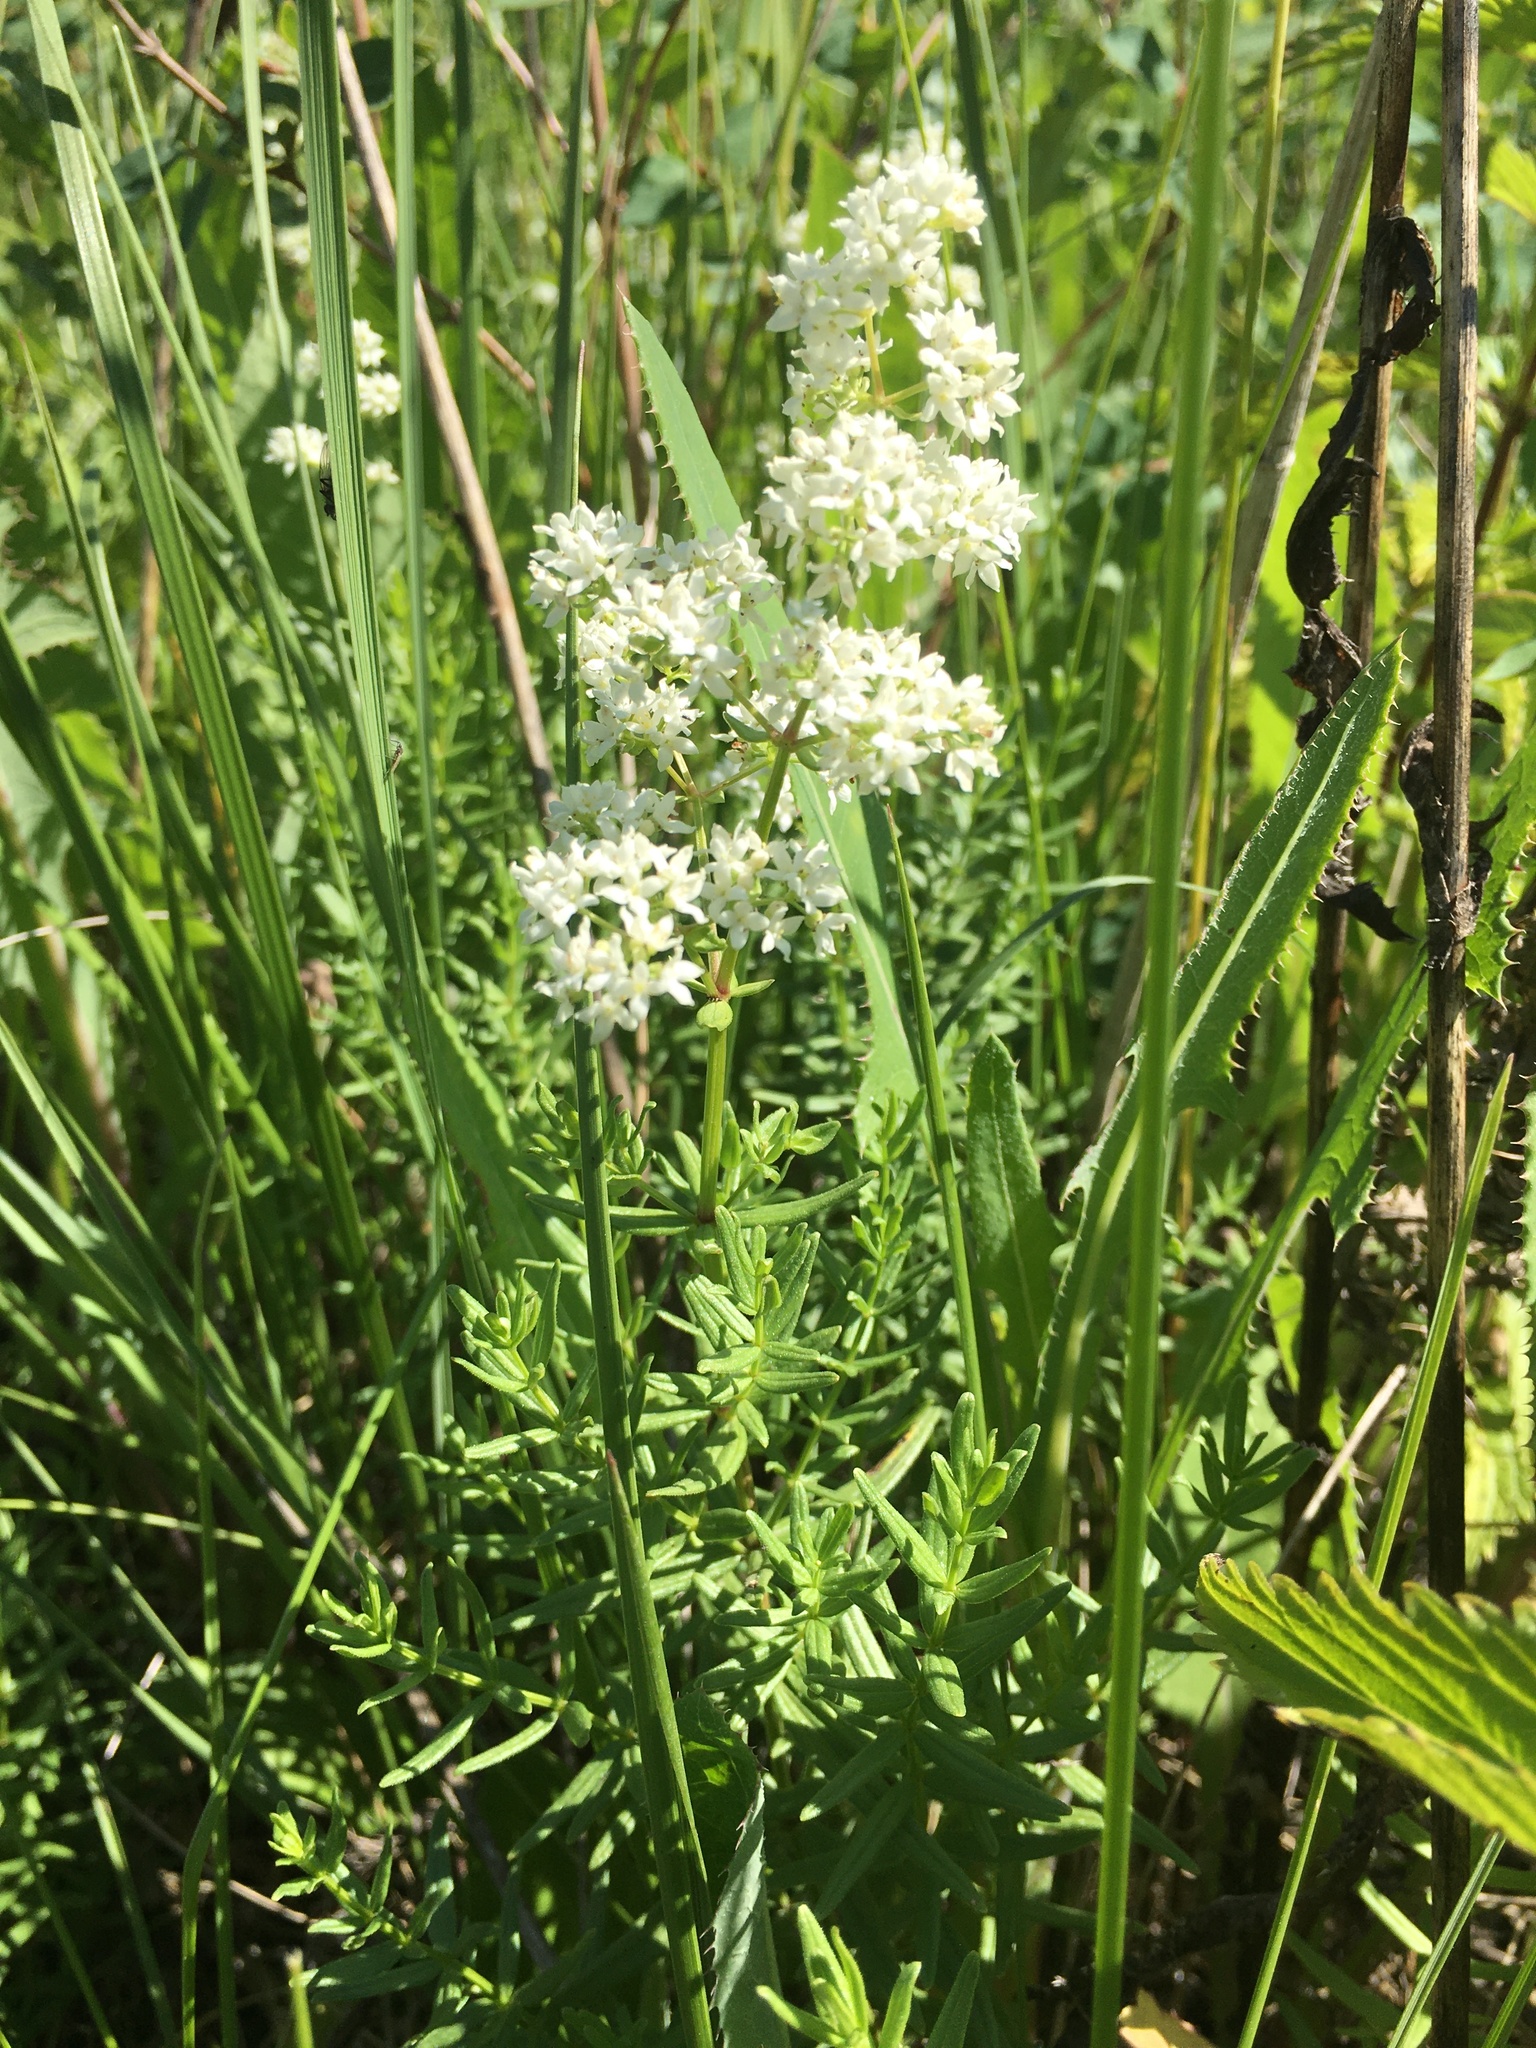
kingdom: Plantae
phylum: Tracheophyta
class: Magnoliopsida
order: Gentianales
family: Rubiaceae
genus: Galium
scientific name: Galium boreale
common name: Northern bedstraw
